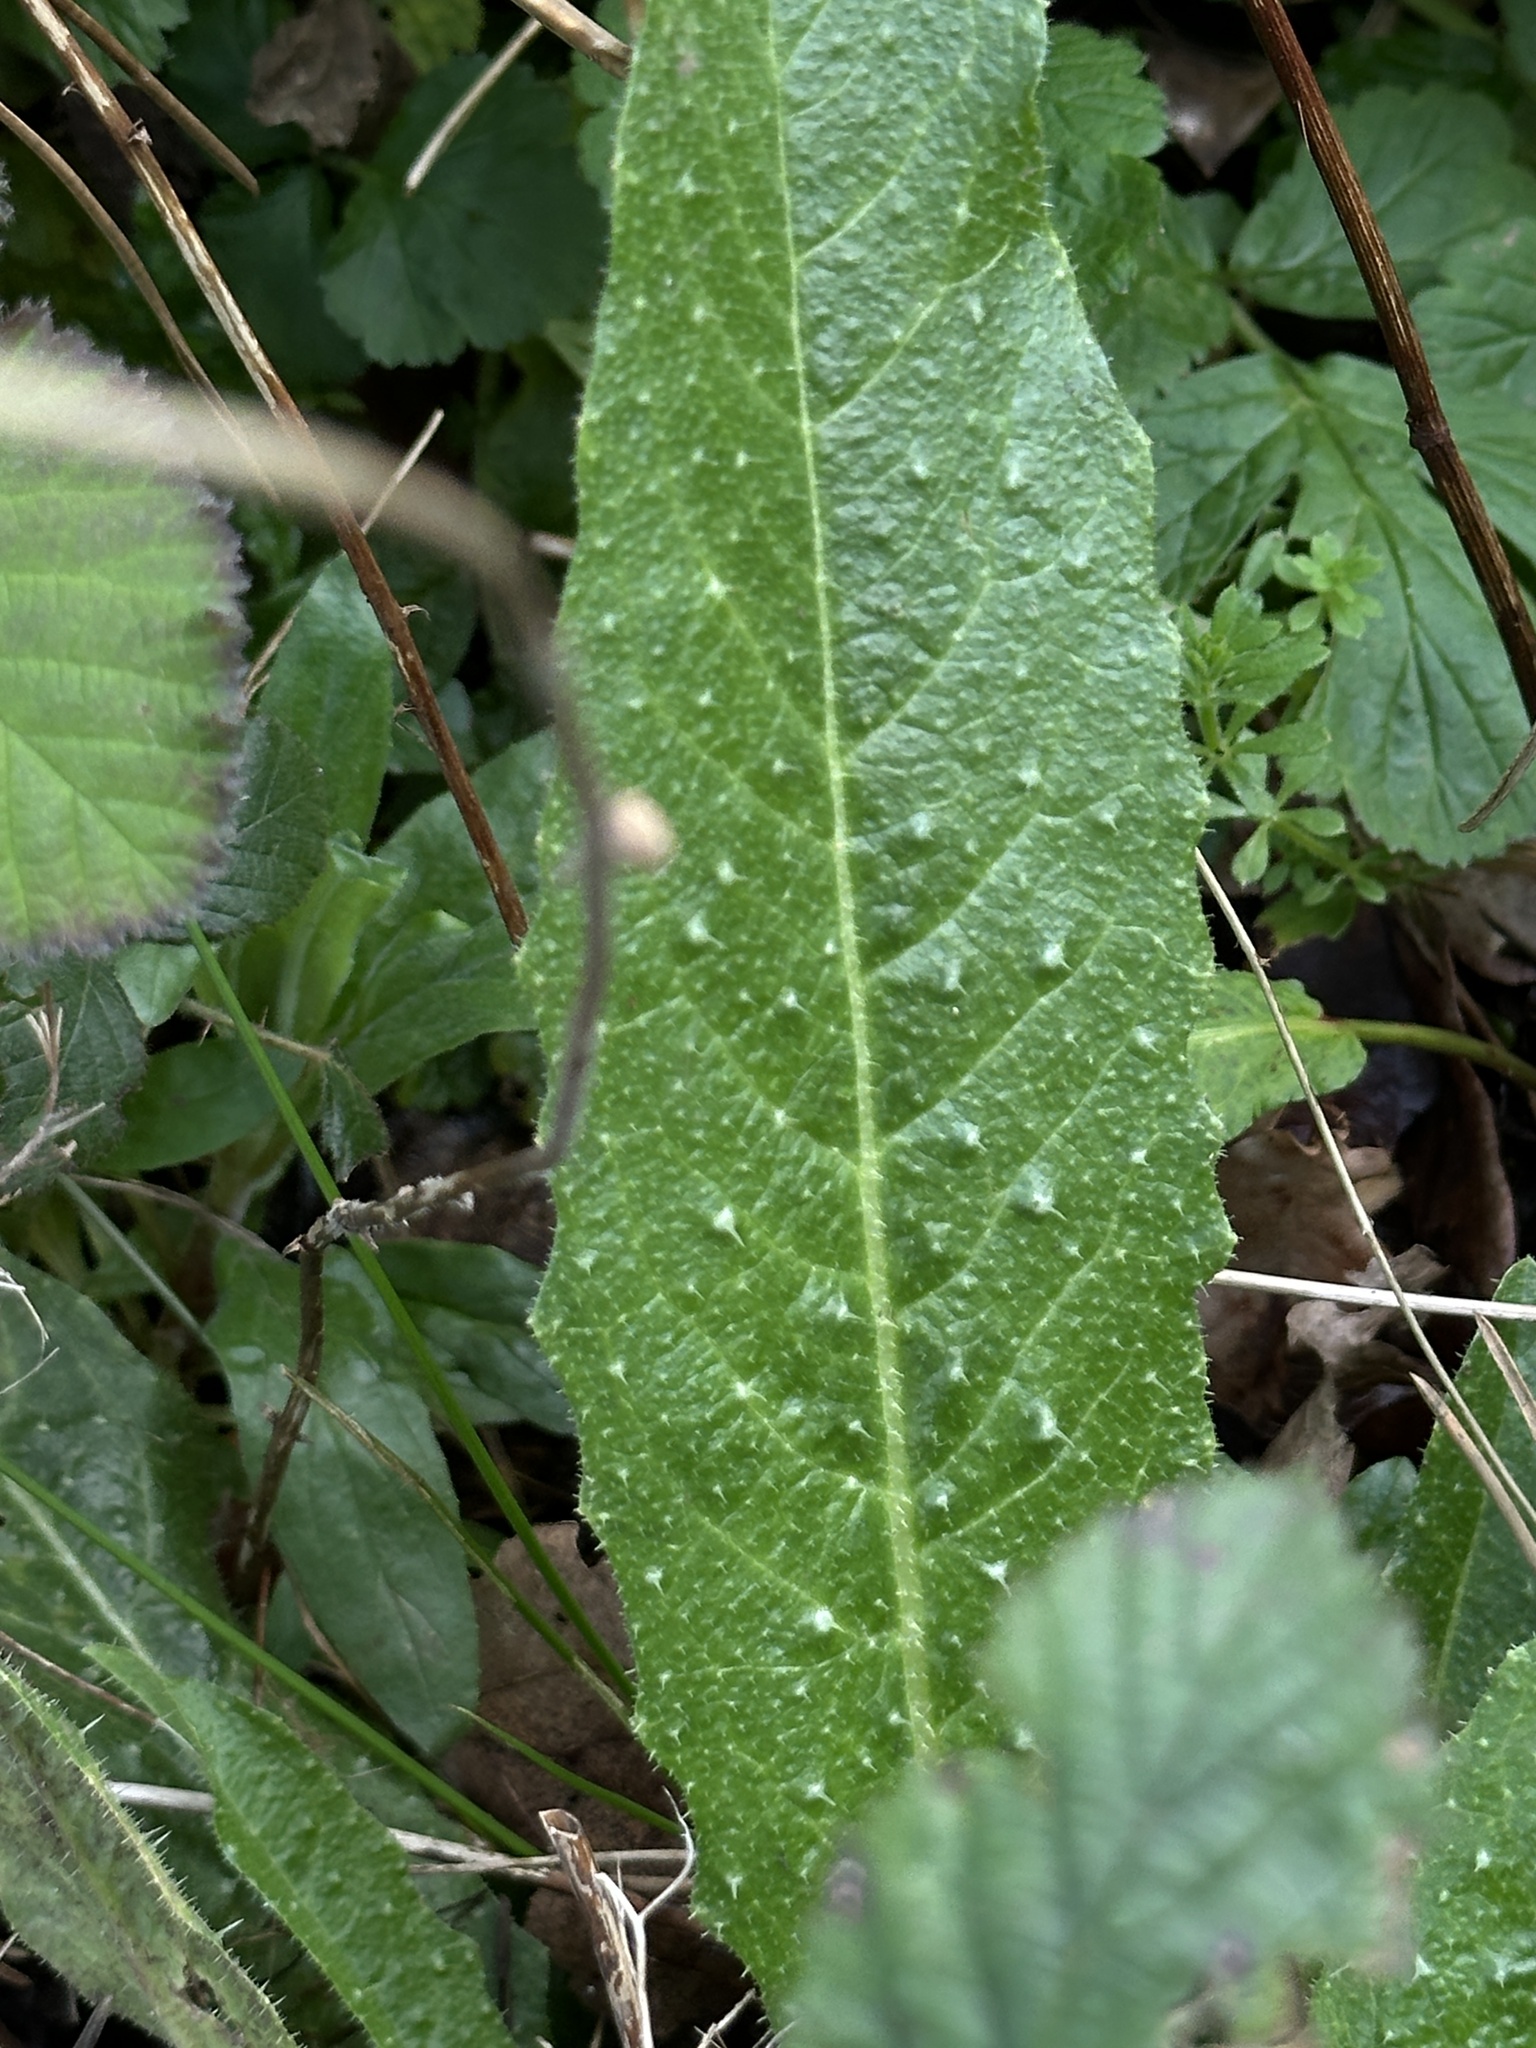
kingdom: Plantae
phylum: Tracheophyta
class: Magnoliopsida
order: Asterales
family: Asteraceae
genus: Helminthotheca
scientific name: Helminthotheca echioides
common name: Ox-tongue
